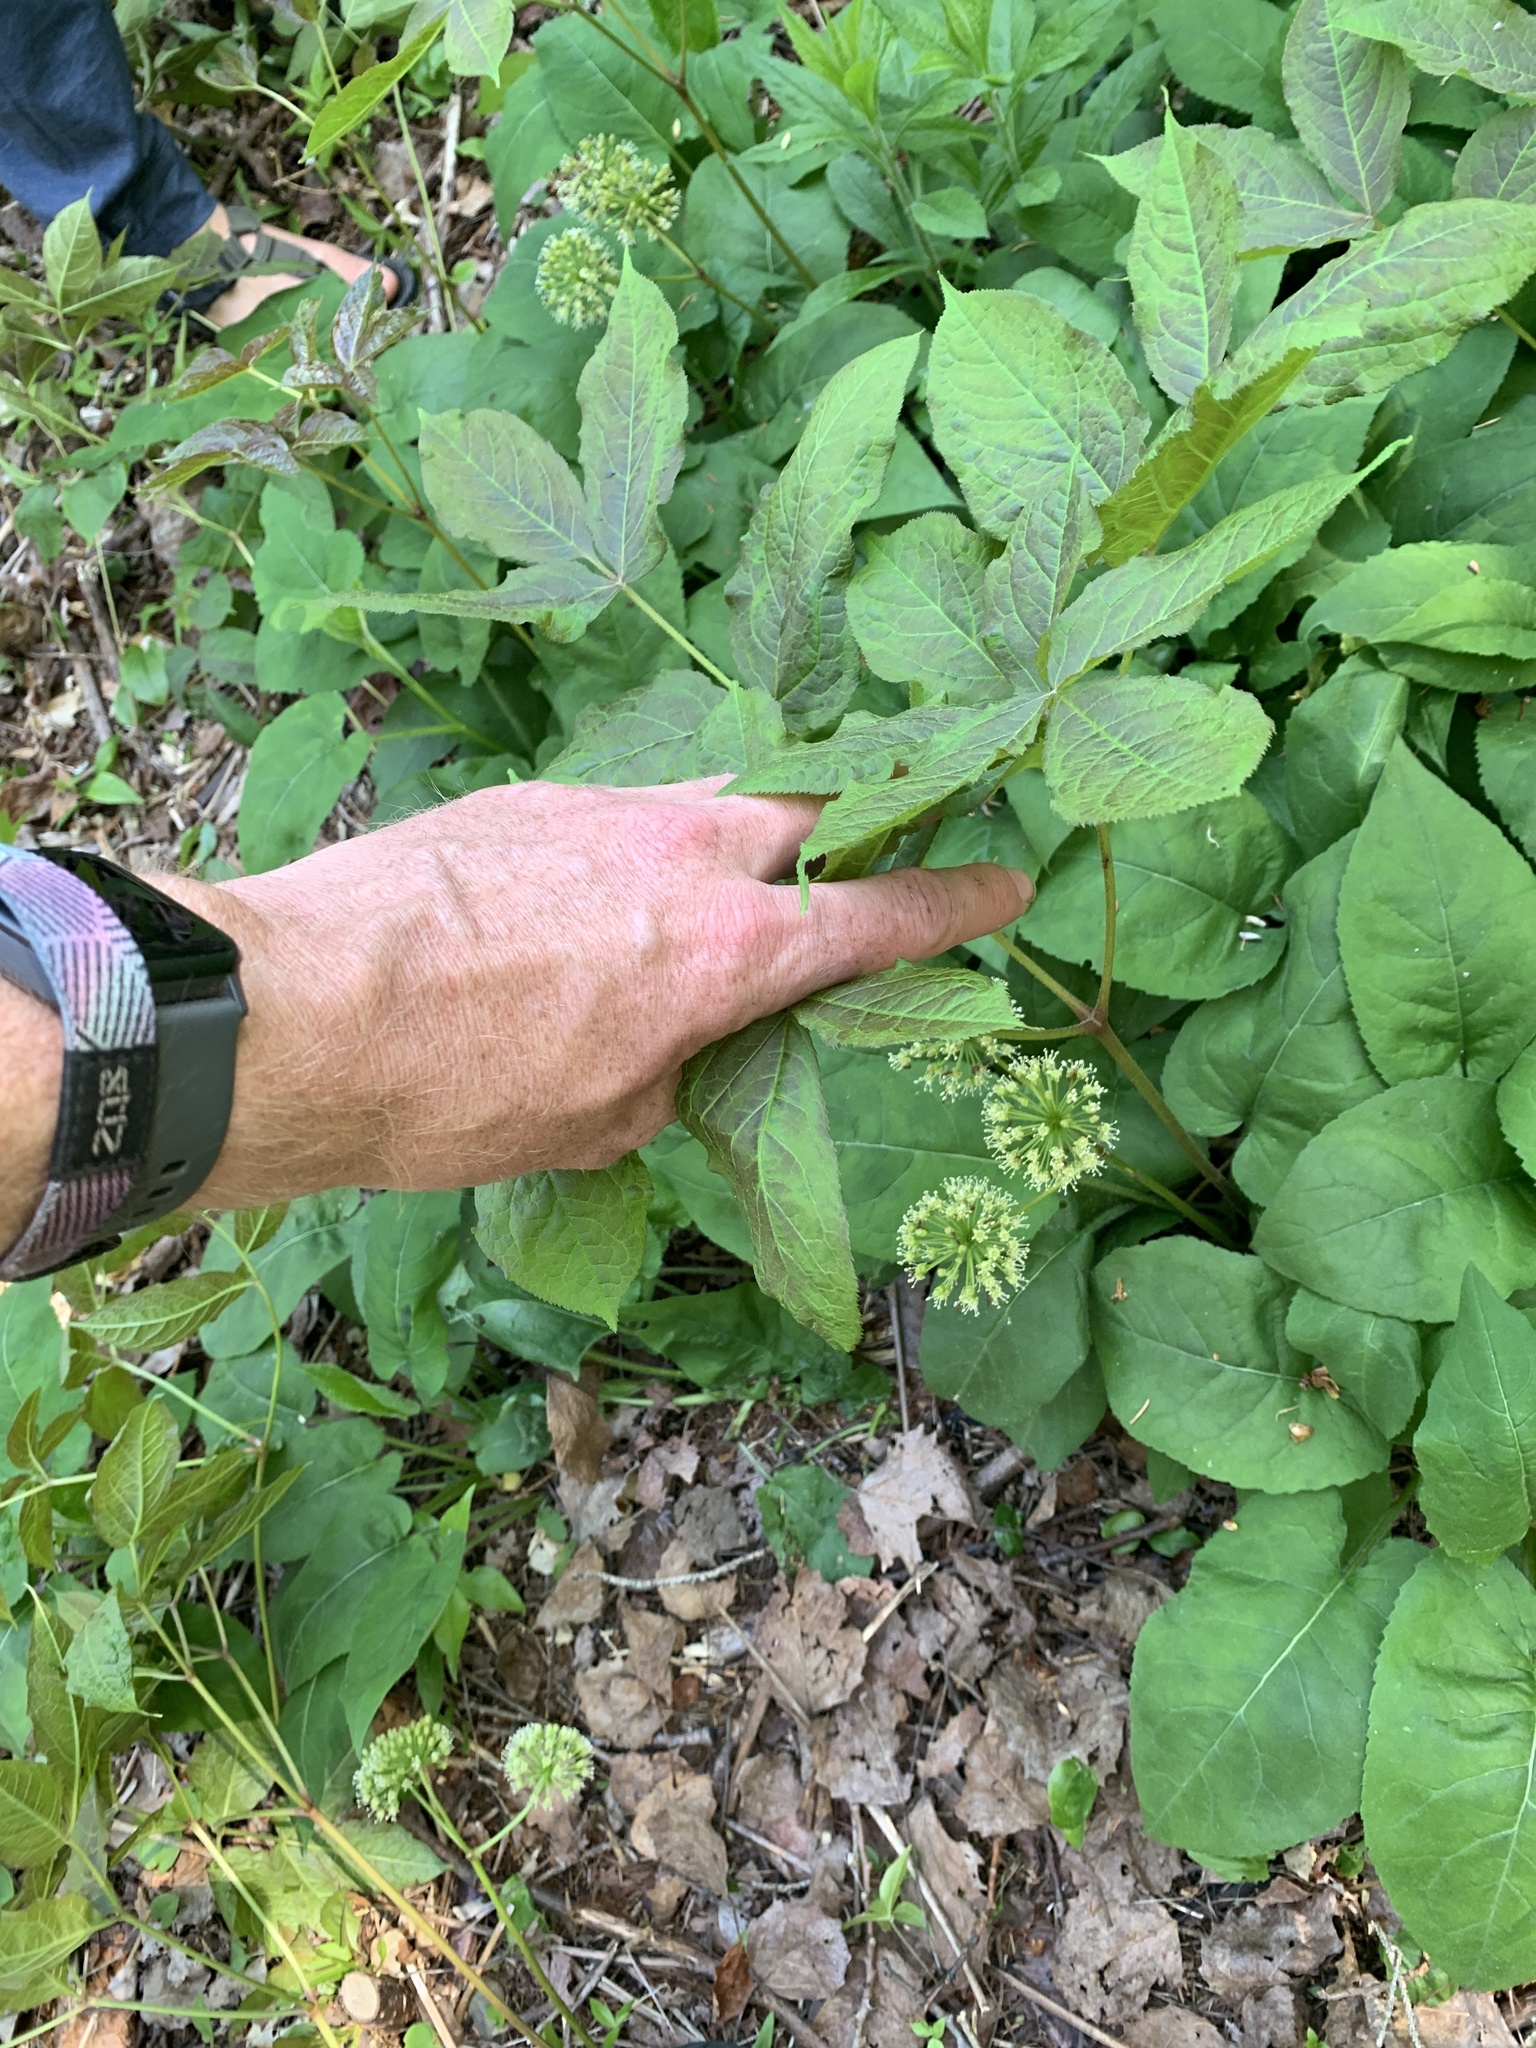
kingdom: Plantae
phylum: Tracheophyta
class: Magnoliopsida
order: Apiales
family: Araliaceae
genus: Aralia
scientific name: Aralia nudicaulis
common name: Wild sarsaparilla
